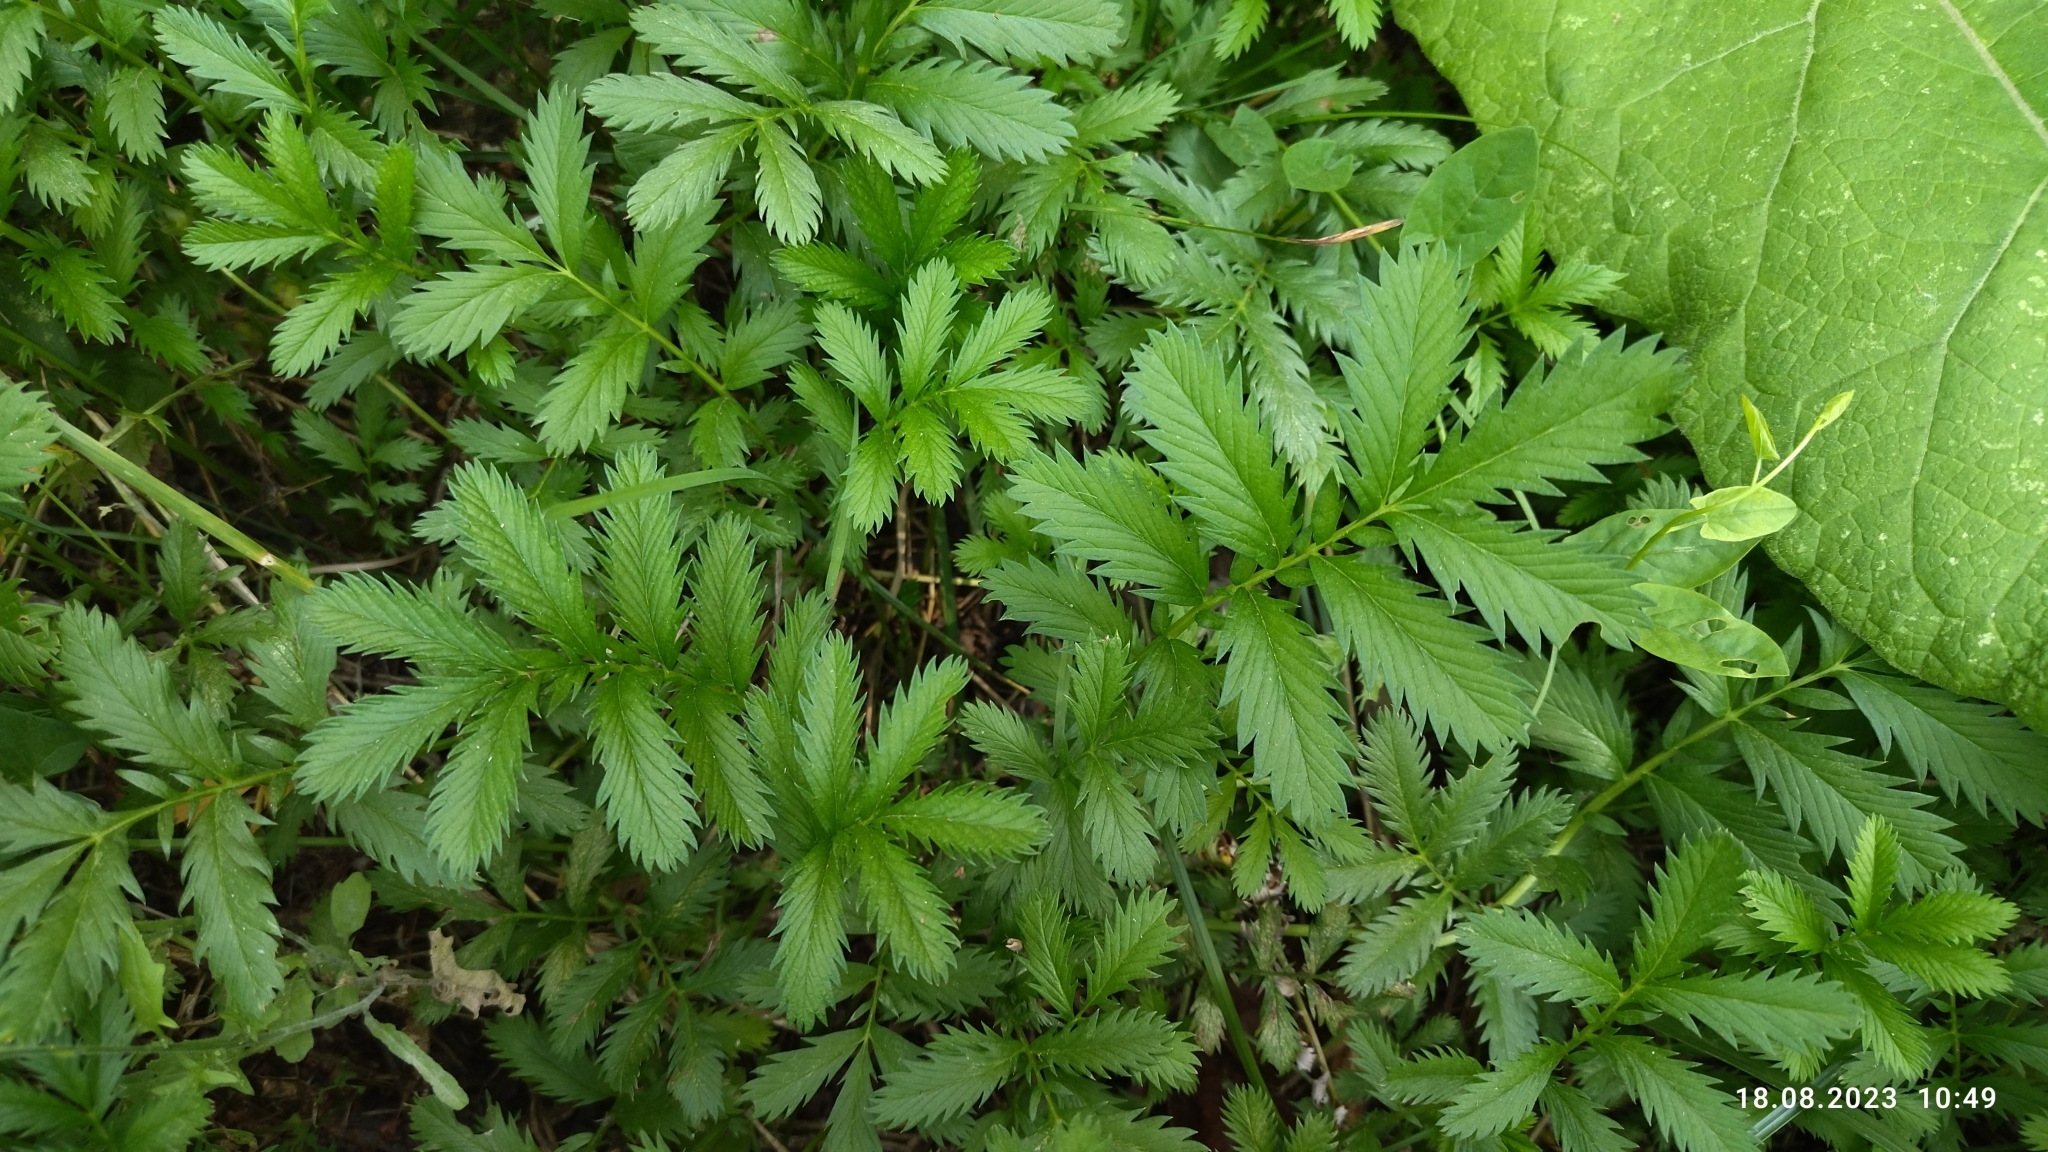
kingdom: Plantae
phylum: Tracheophyta
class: Magnoliopsida
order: Rosales
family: Rosaceae
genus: Argentina
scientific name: Argentina anserina
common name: Common silverweed
